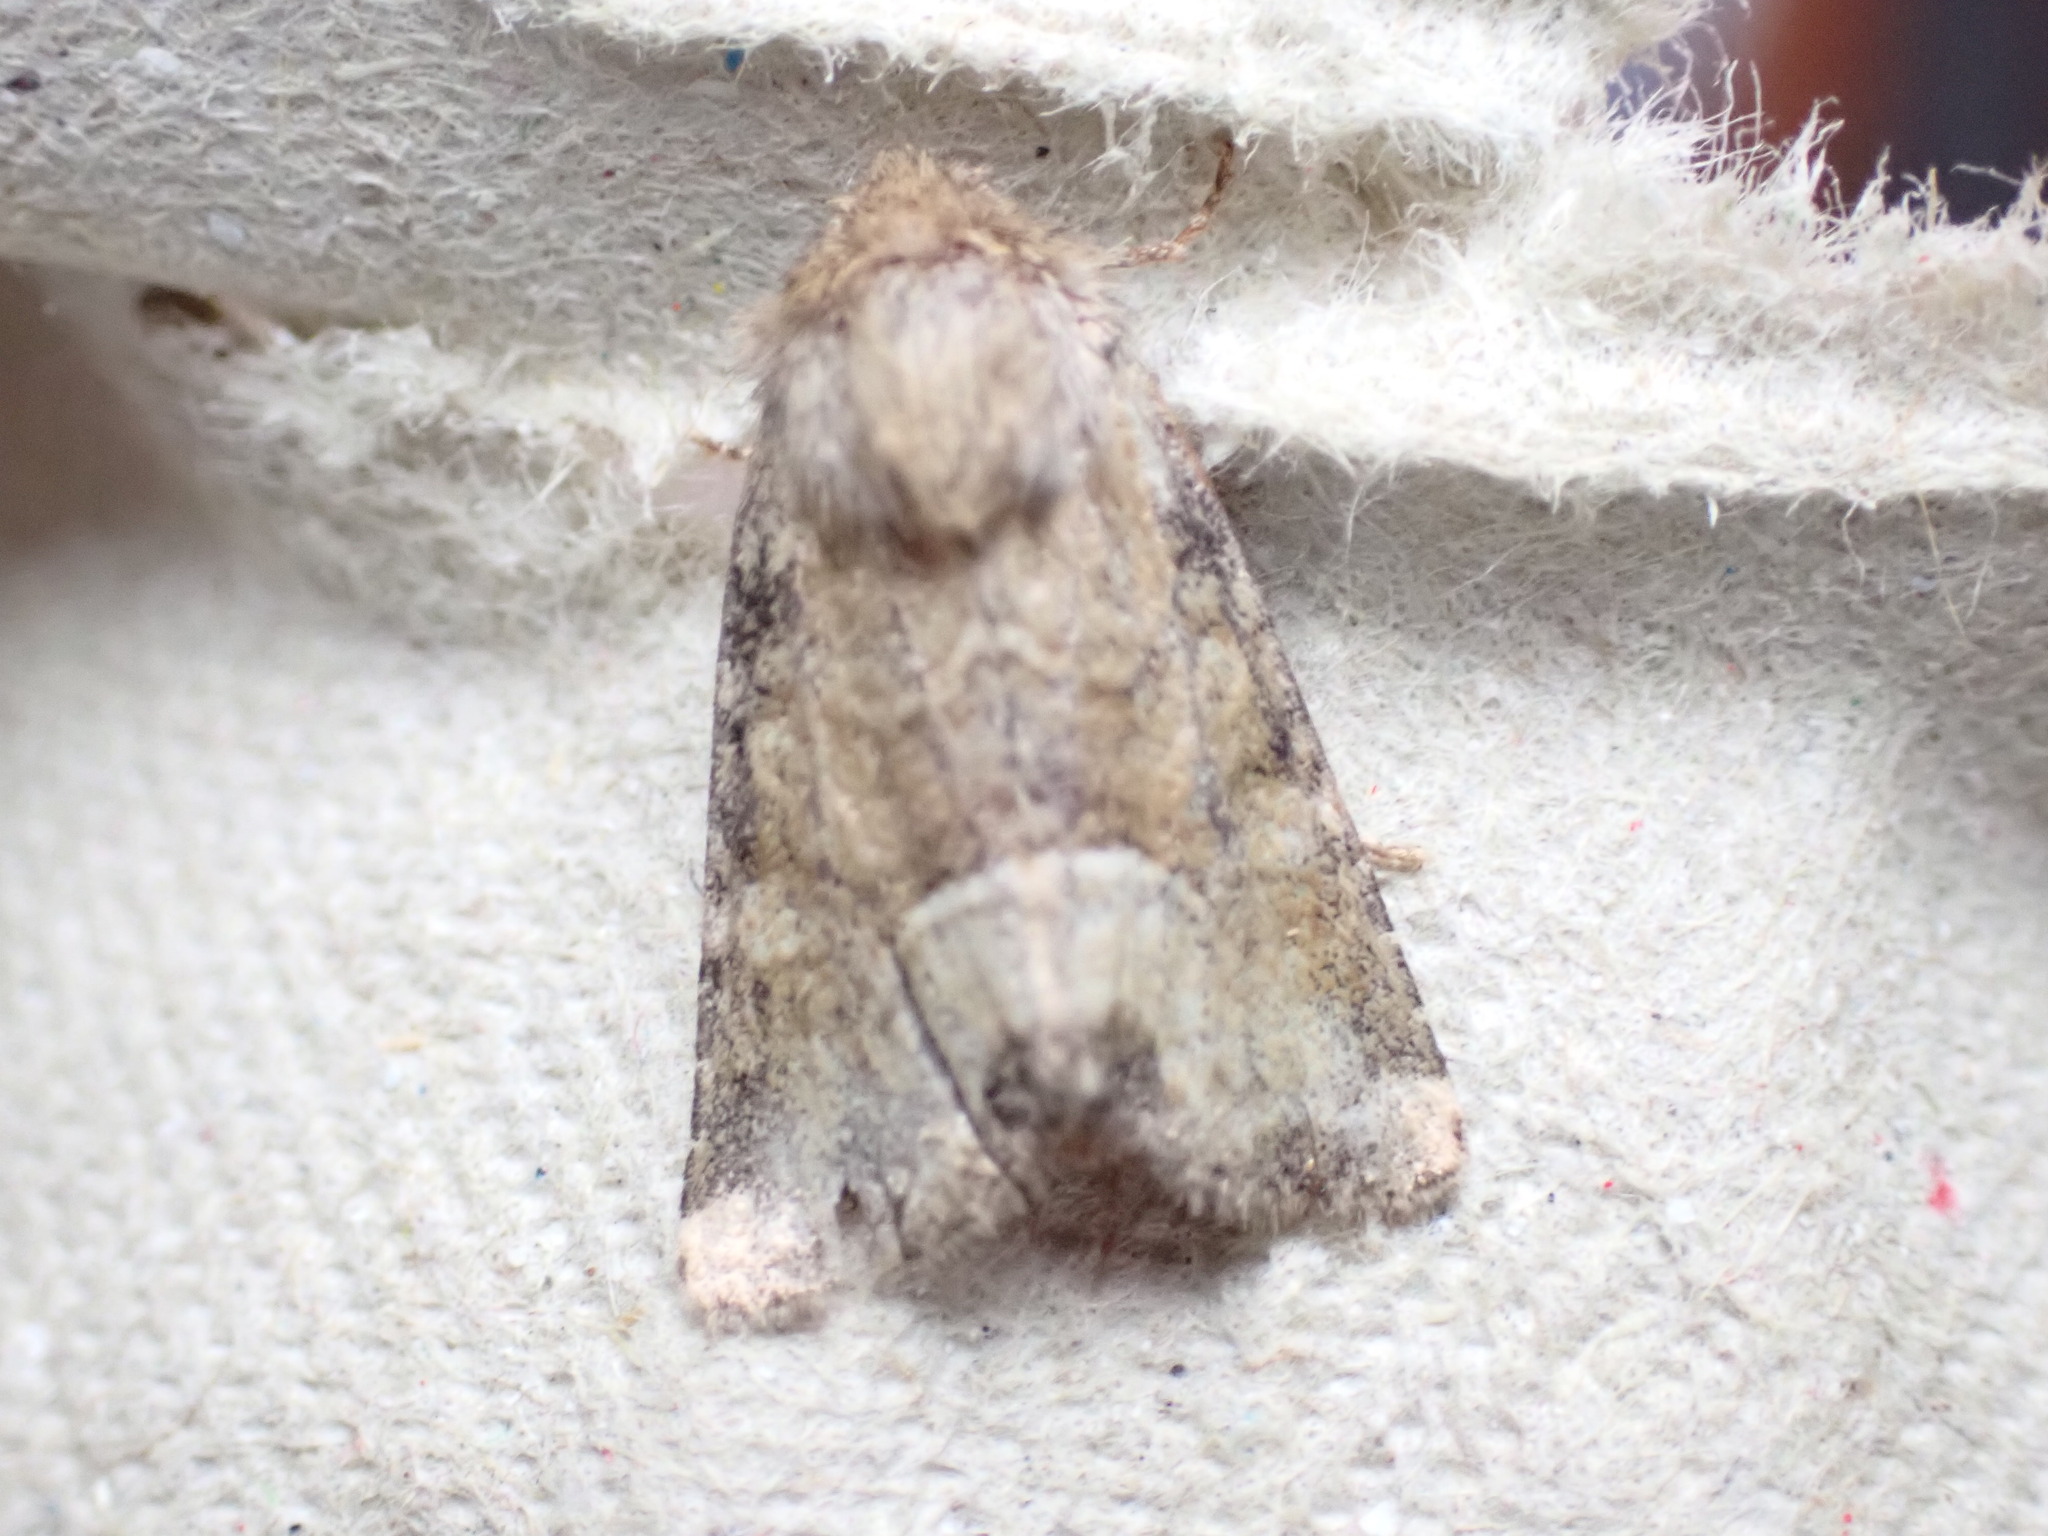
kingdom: Animalia
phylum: Arthropoda
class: Insecta
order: Lepidoptera
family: Noctuidae
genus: Oligia
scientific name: Oligia fasciuncula
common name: Middle-barred minor
